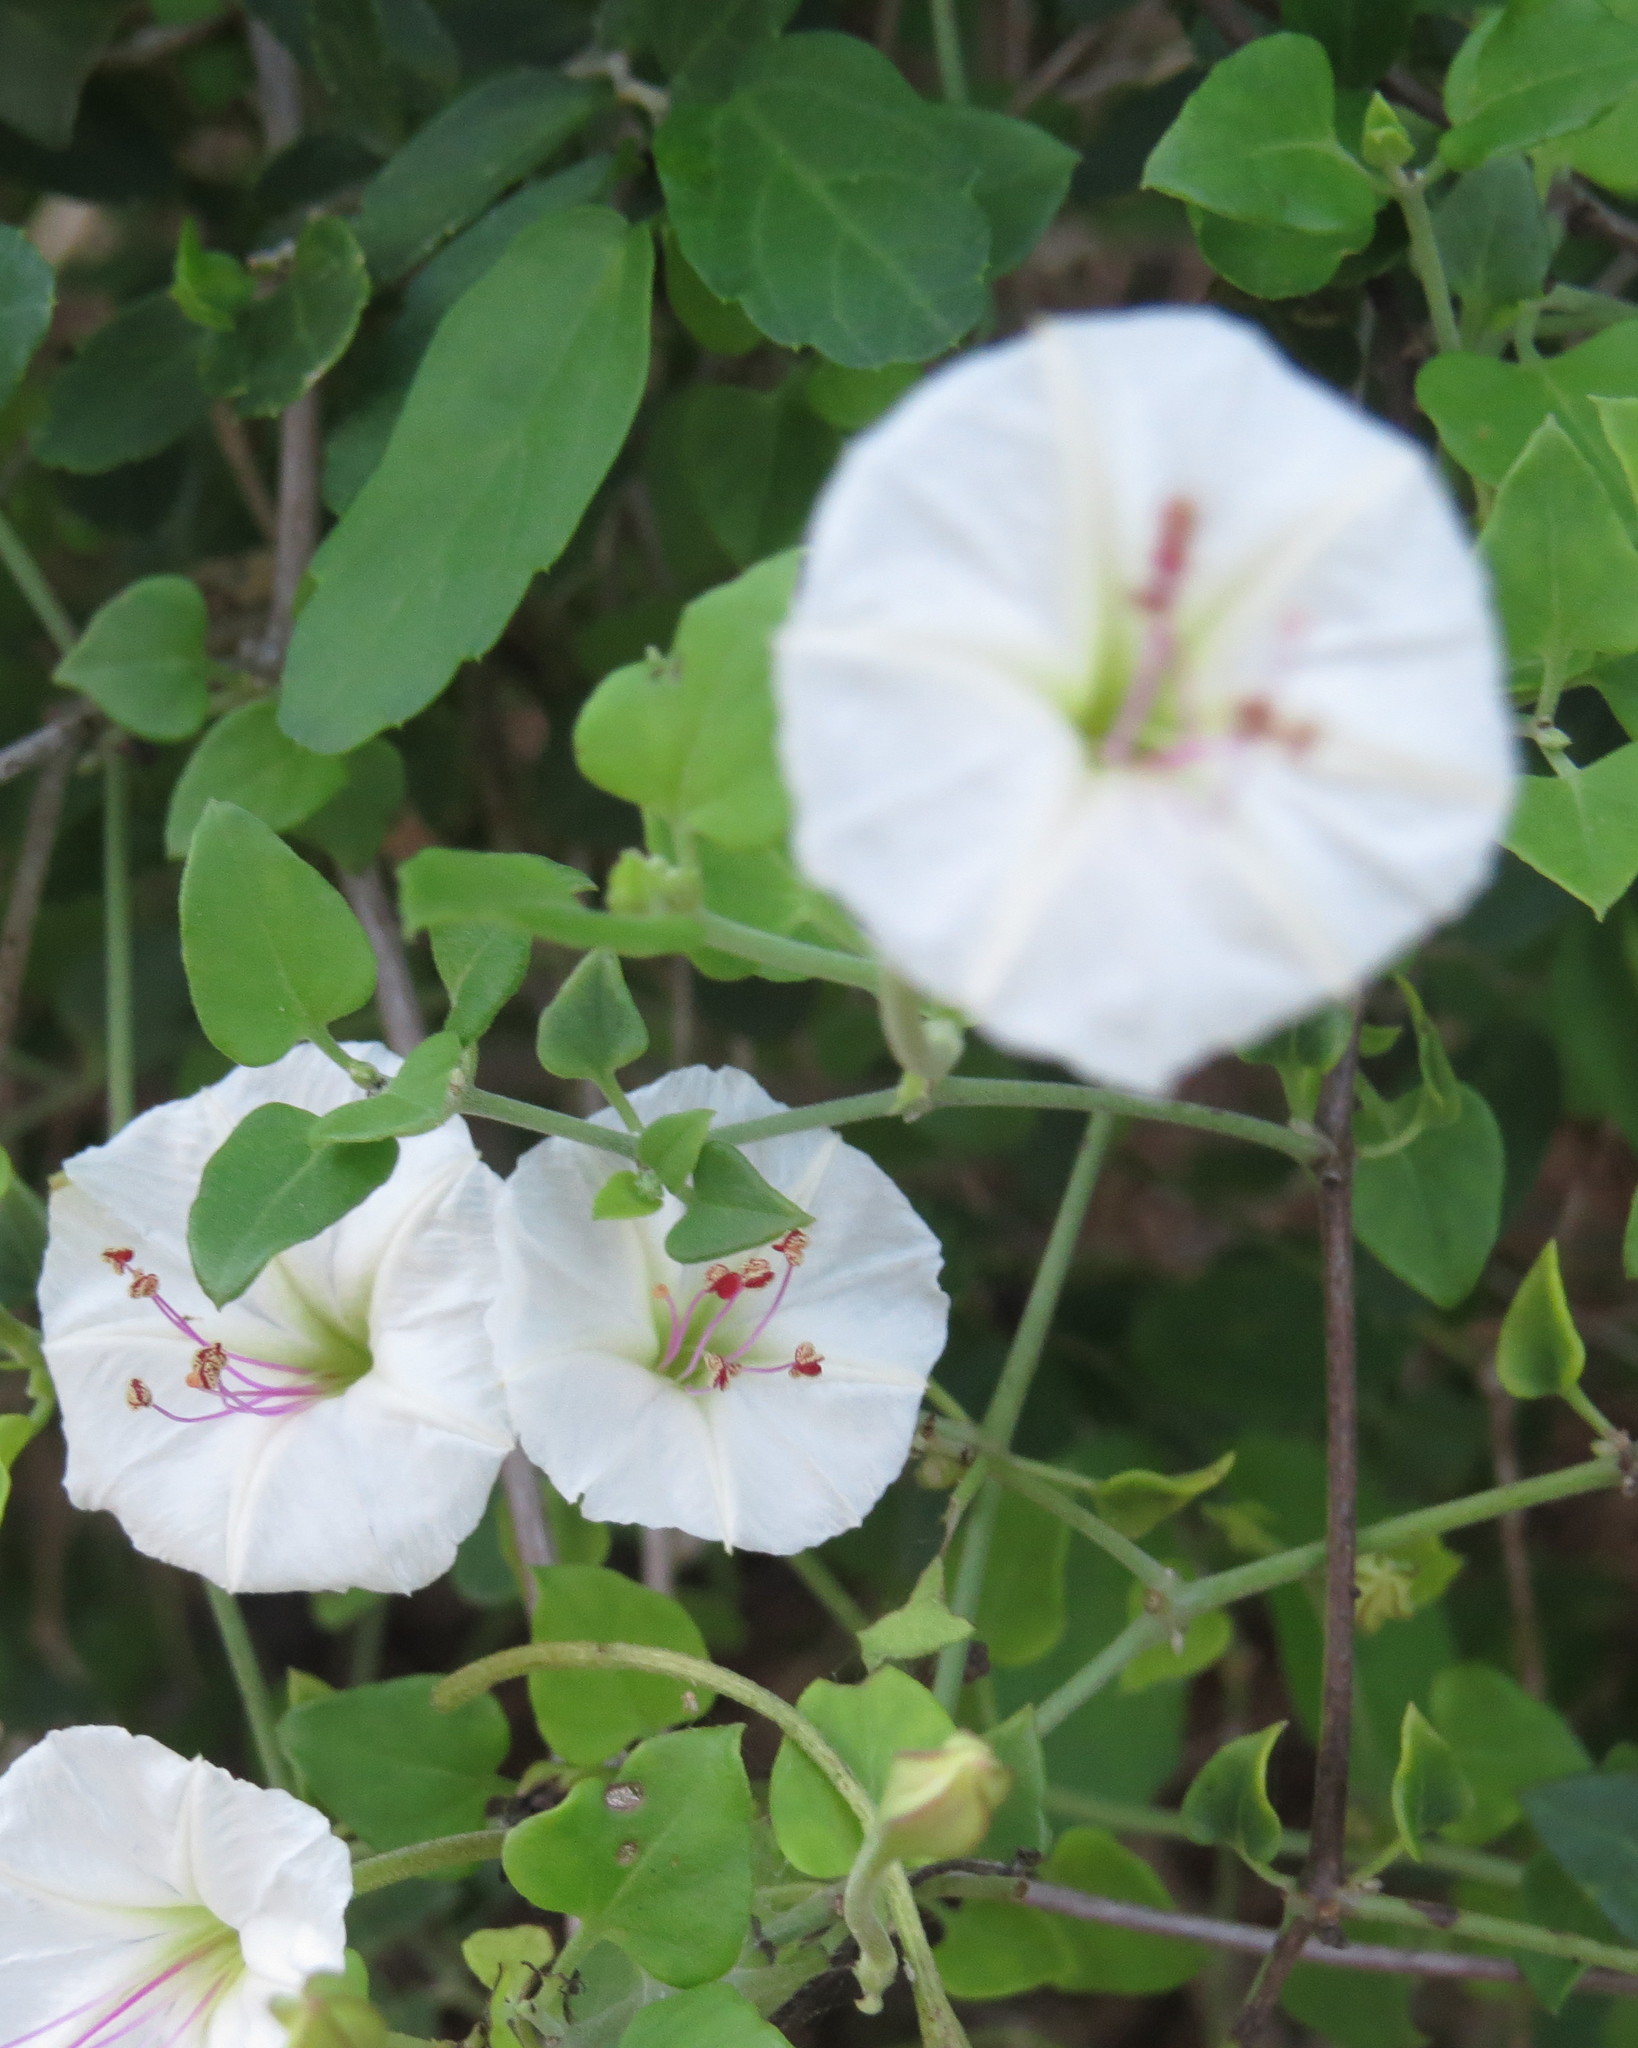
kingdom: Plantae
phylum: Tracheophyta
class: Magnoliopsida
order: Caryophyllales
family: Nyctaginaceae
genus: Acleisanthes
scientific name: Acleisanthes obtusa
